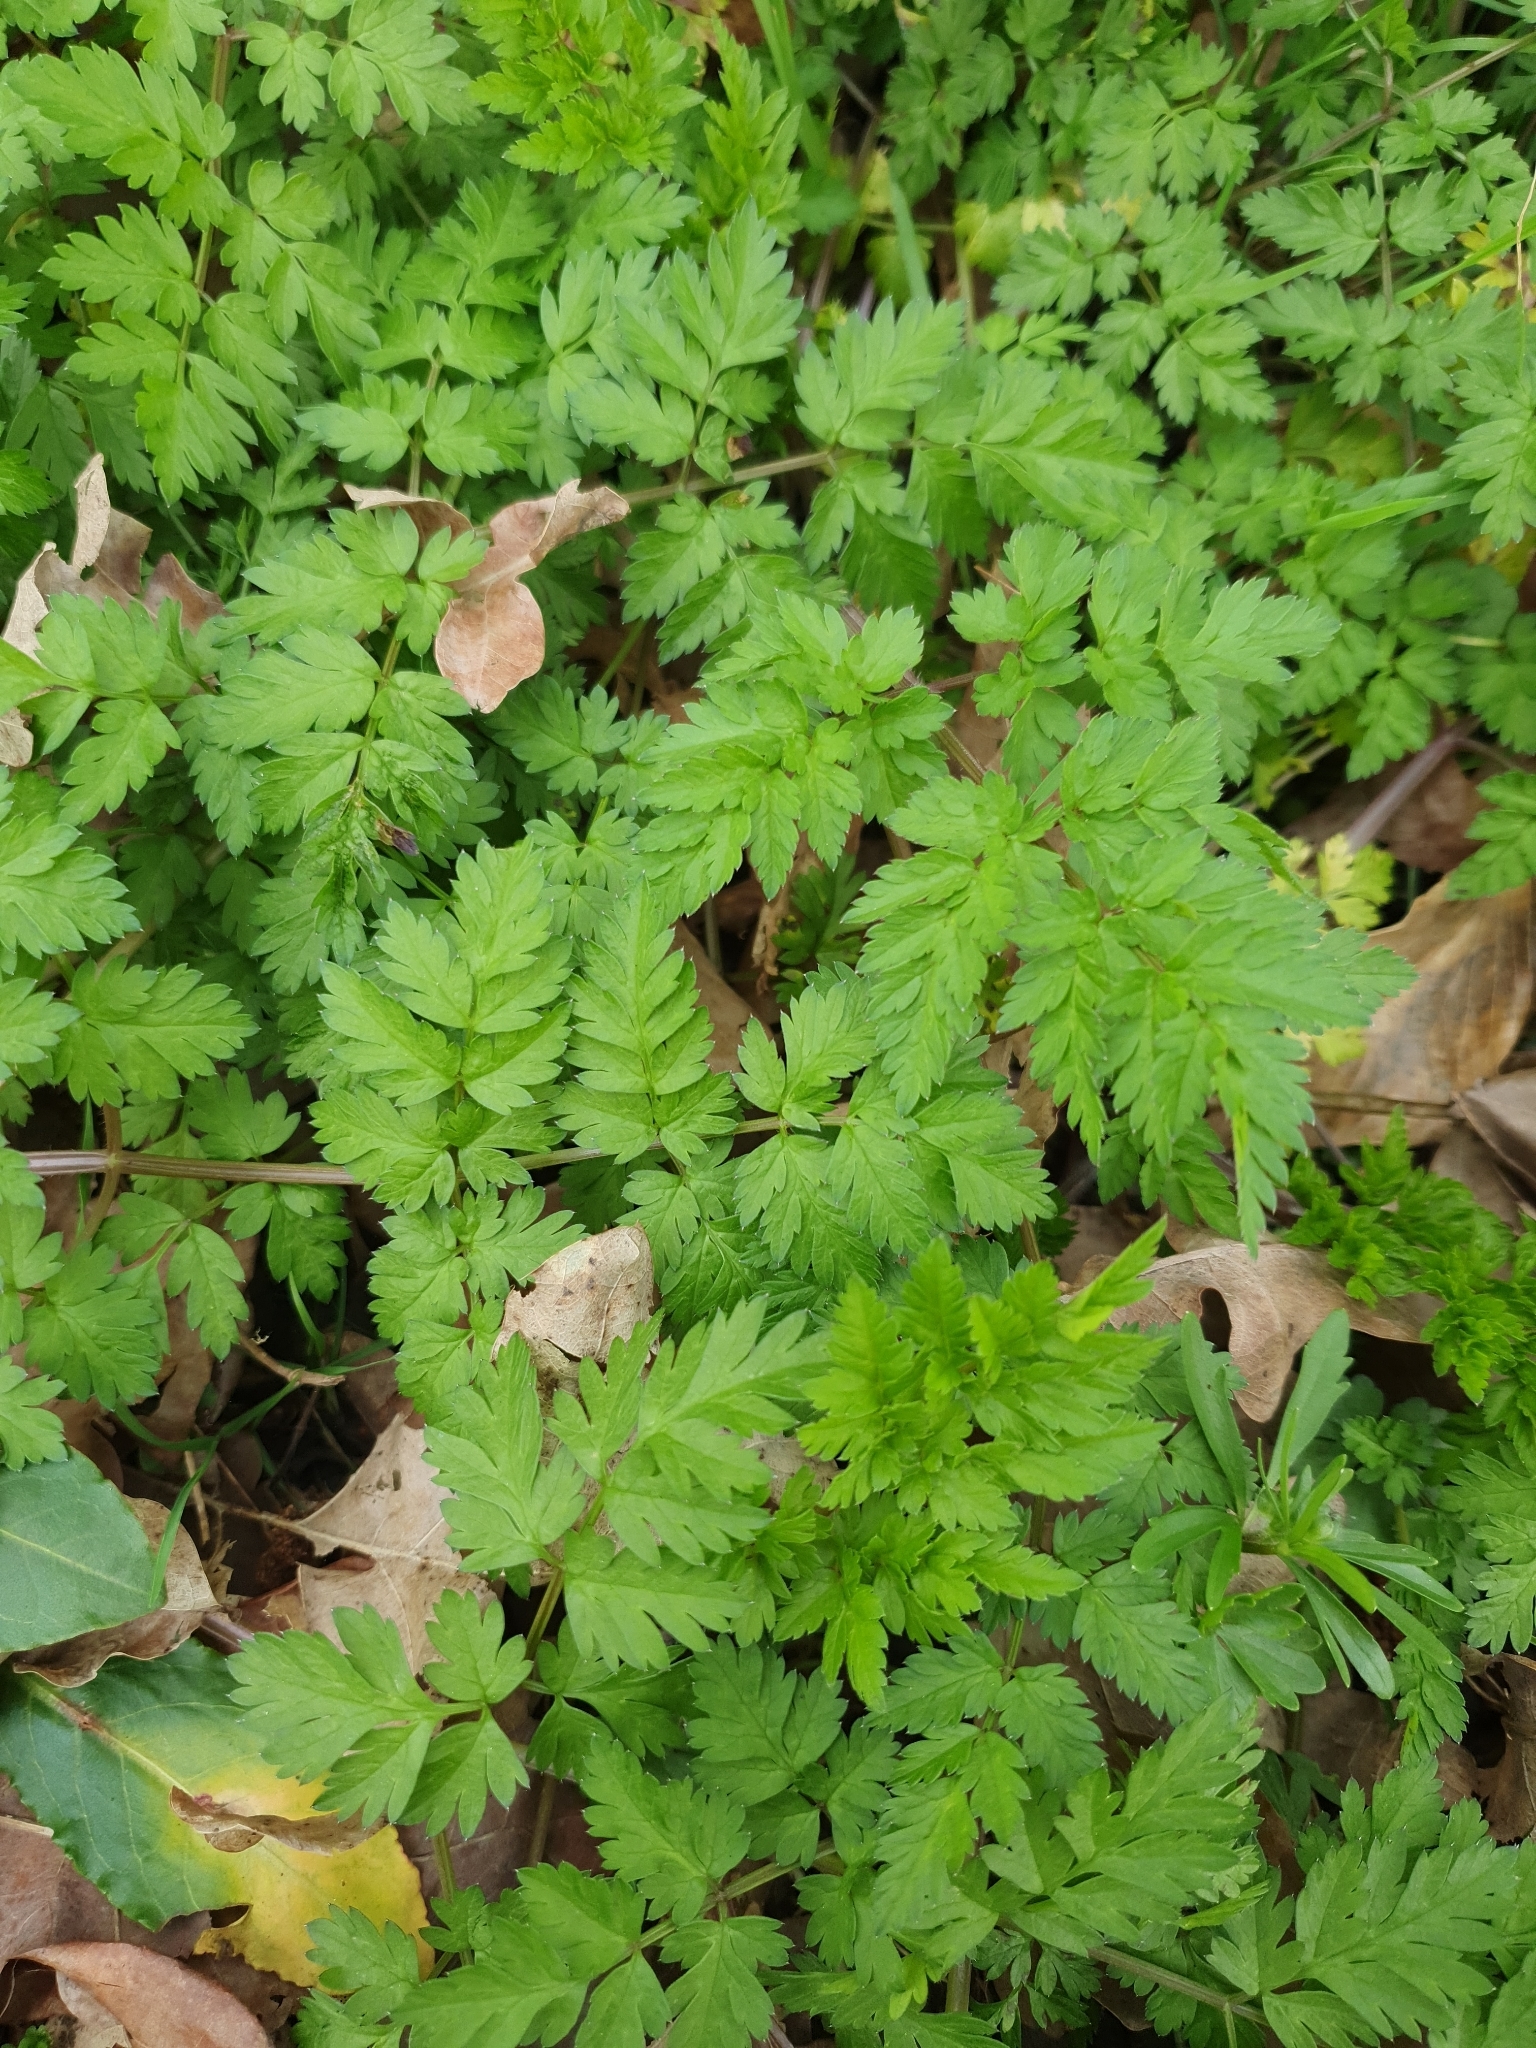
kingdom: Plantae
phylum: Tracheophyta
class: Magnoliopsida
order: Apiales
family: Apiaceae
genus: Anthriscus
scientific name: Anthriscus sylvestris
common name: Cow parsley
